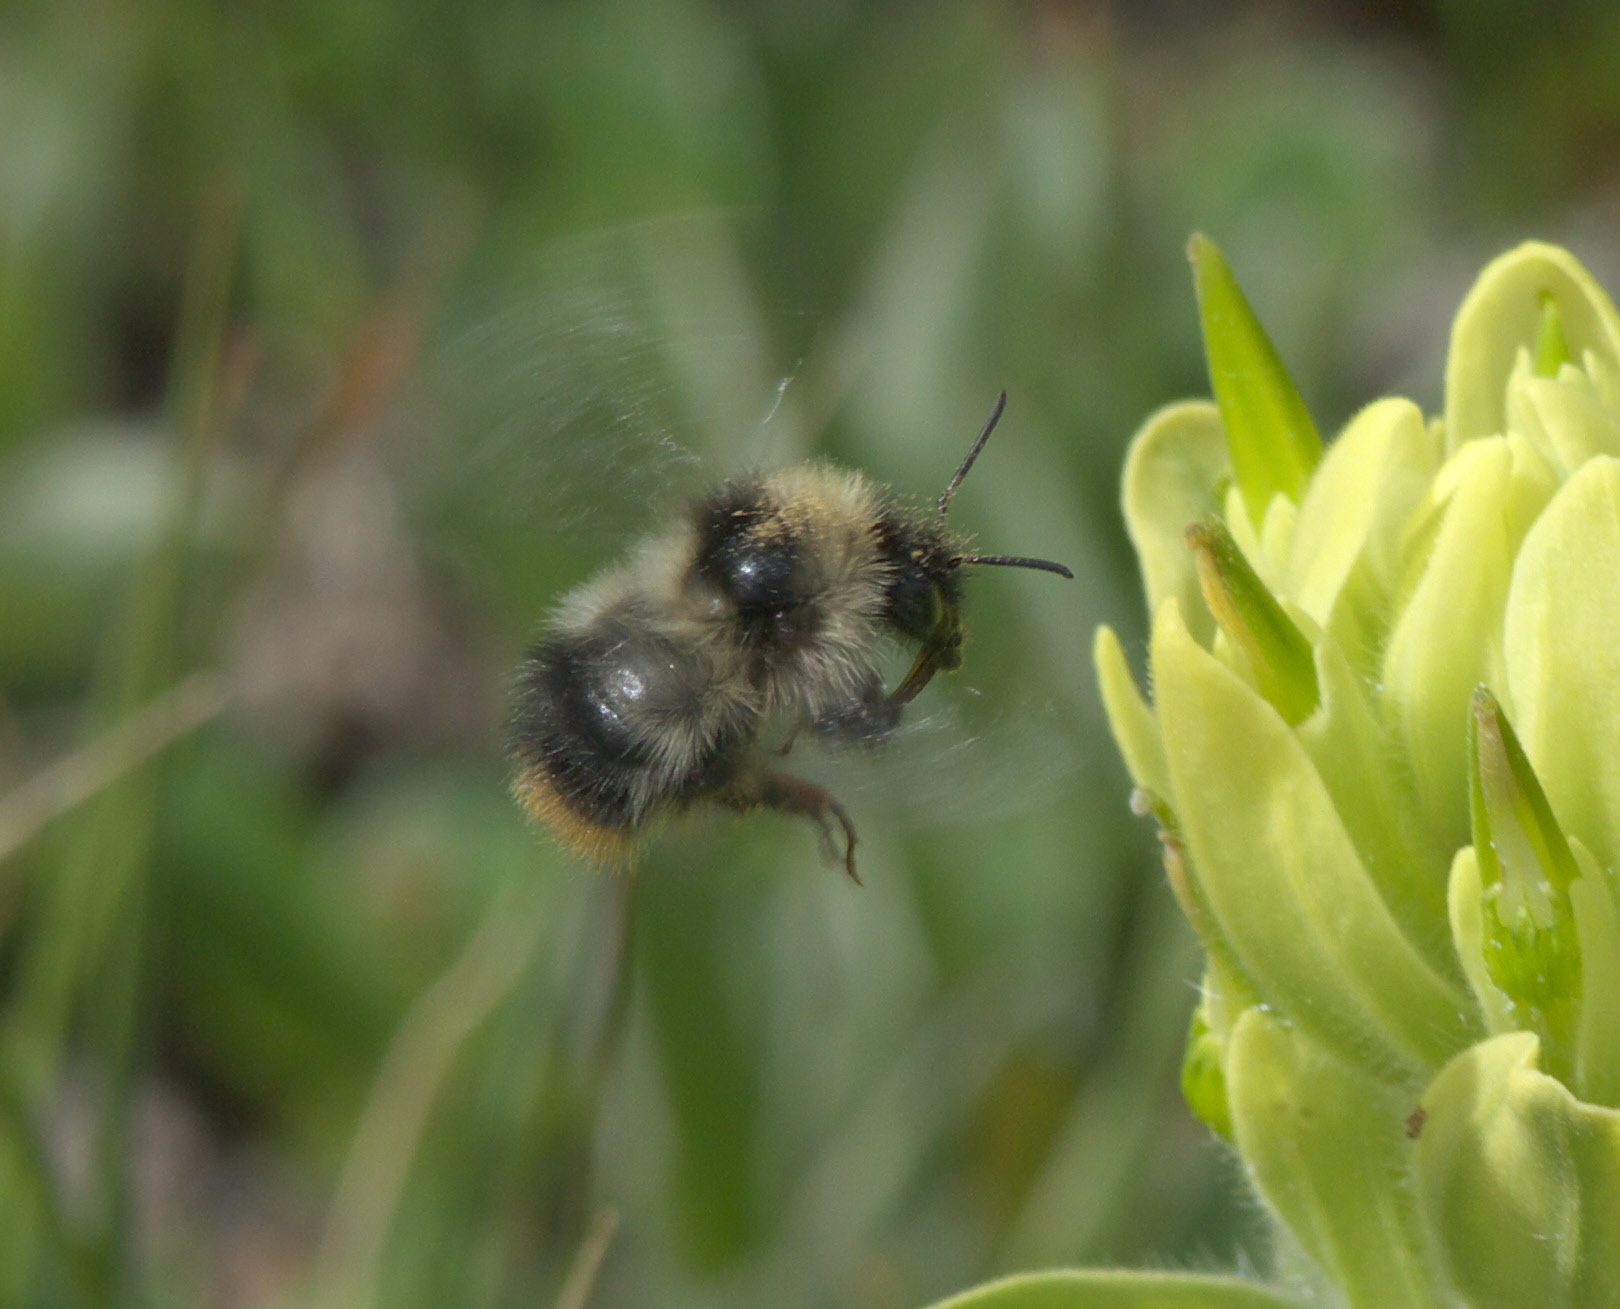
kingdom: Animalia
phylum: Arthropoda
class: Insecta
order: Hymenoptera
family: Apidae
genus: Bombus
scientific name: Bombus kirbiellus
